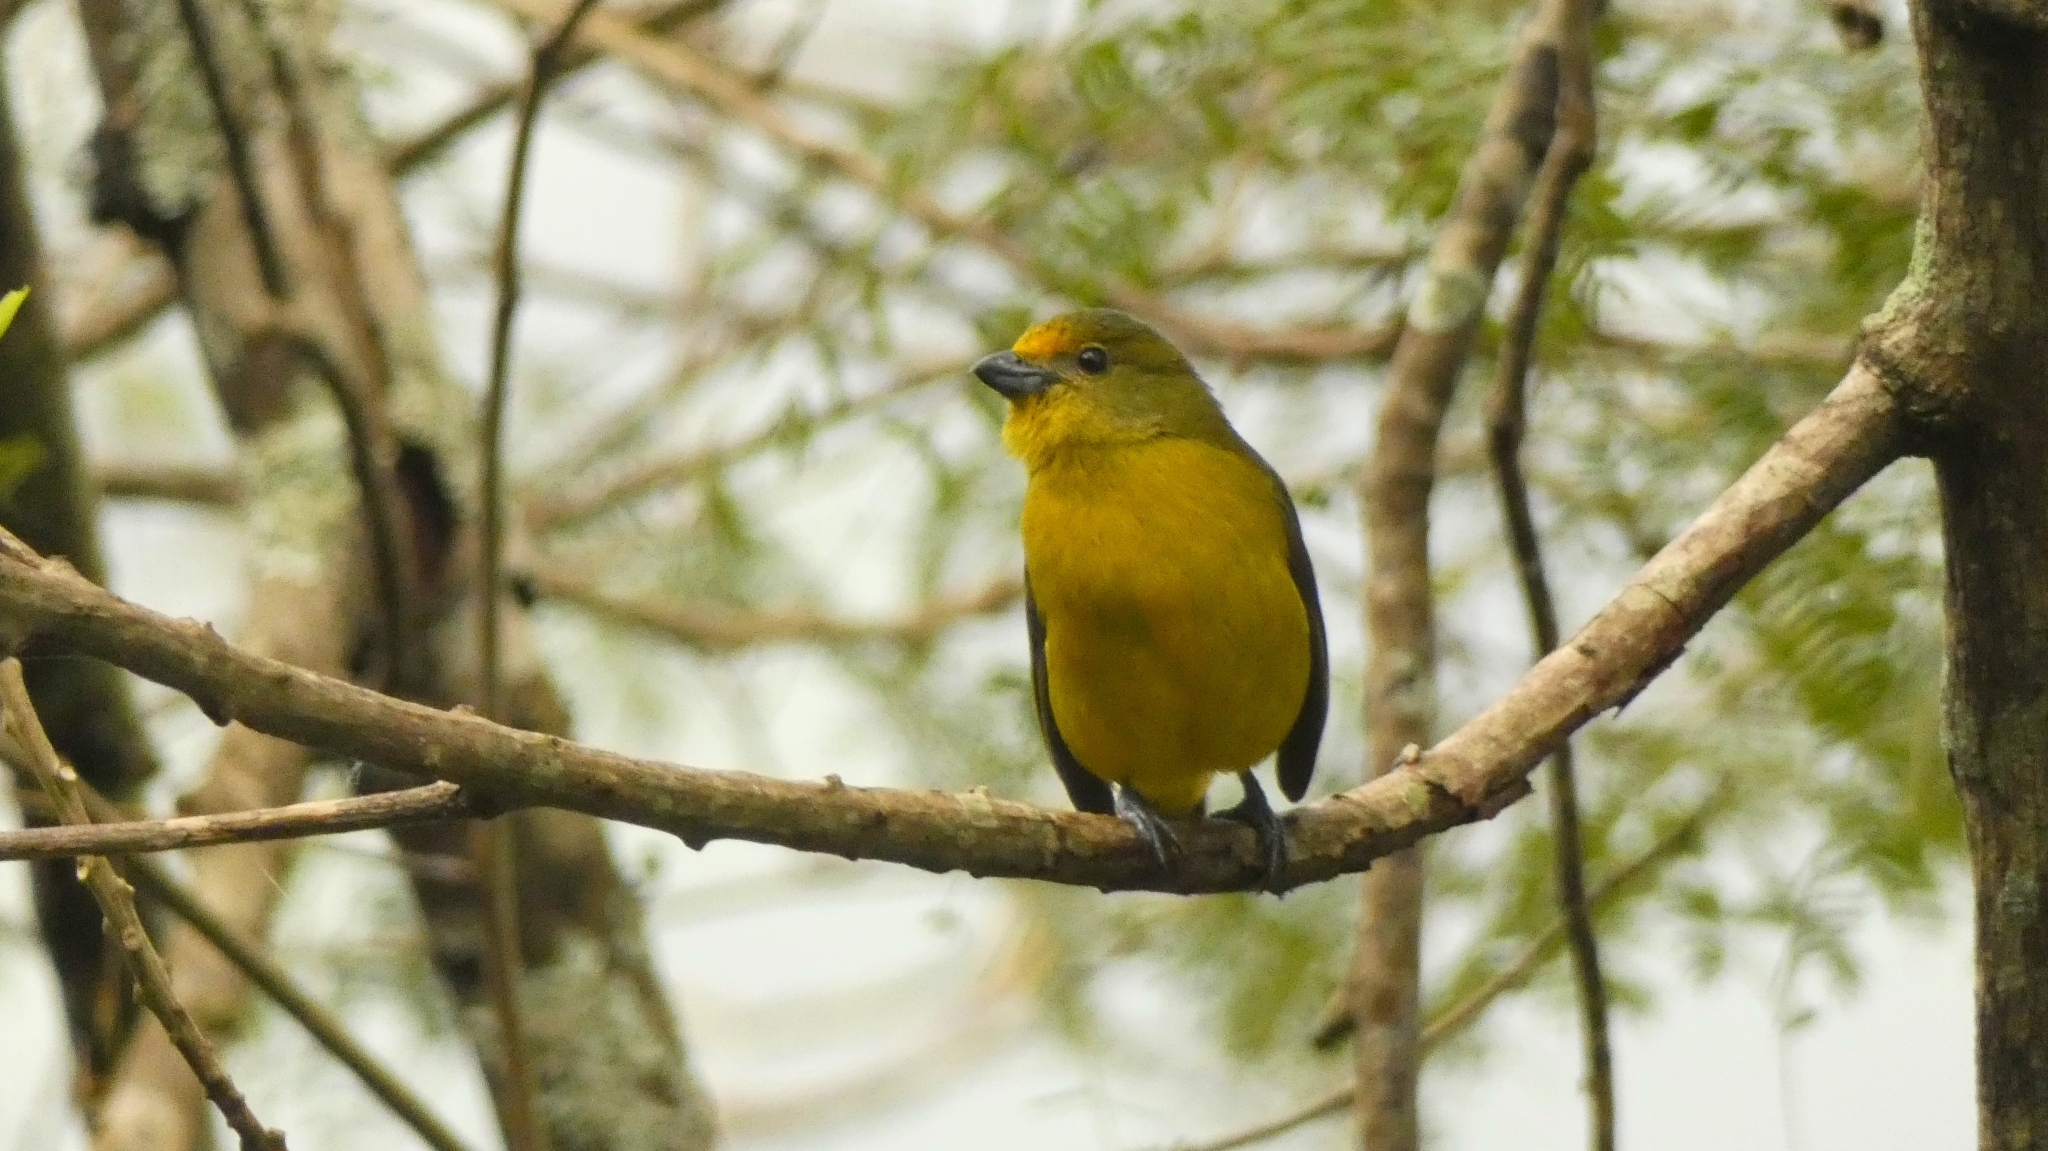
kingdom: Animalia
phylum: Chordata
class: Aves
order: Passeriformes
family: Fringillidae
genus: Euphonia
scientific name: Euphonia violacea
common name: Violaceous euphonia
